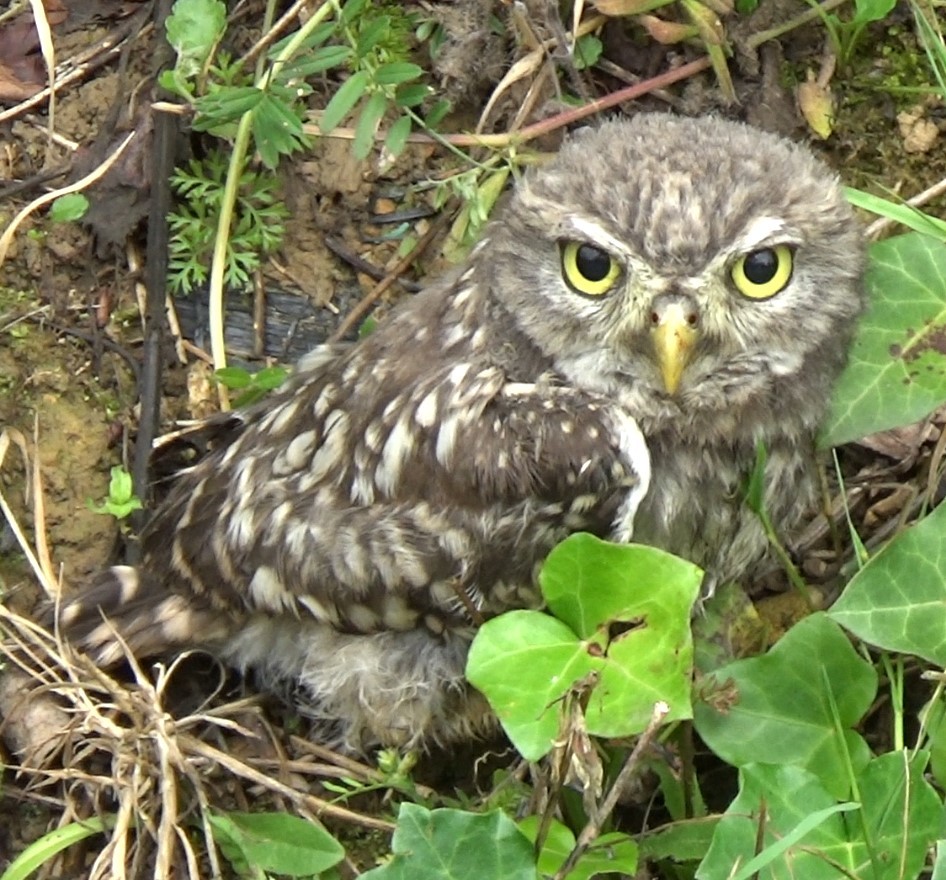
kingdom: Animalia
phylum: Chordata
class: Aves
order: Strigiformes
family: Strigidae
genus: Athene
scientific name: Athene noctua
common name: Little owl
